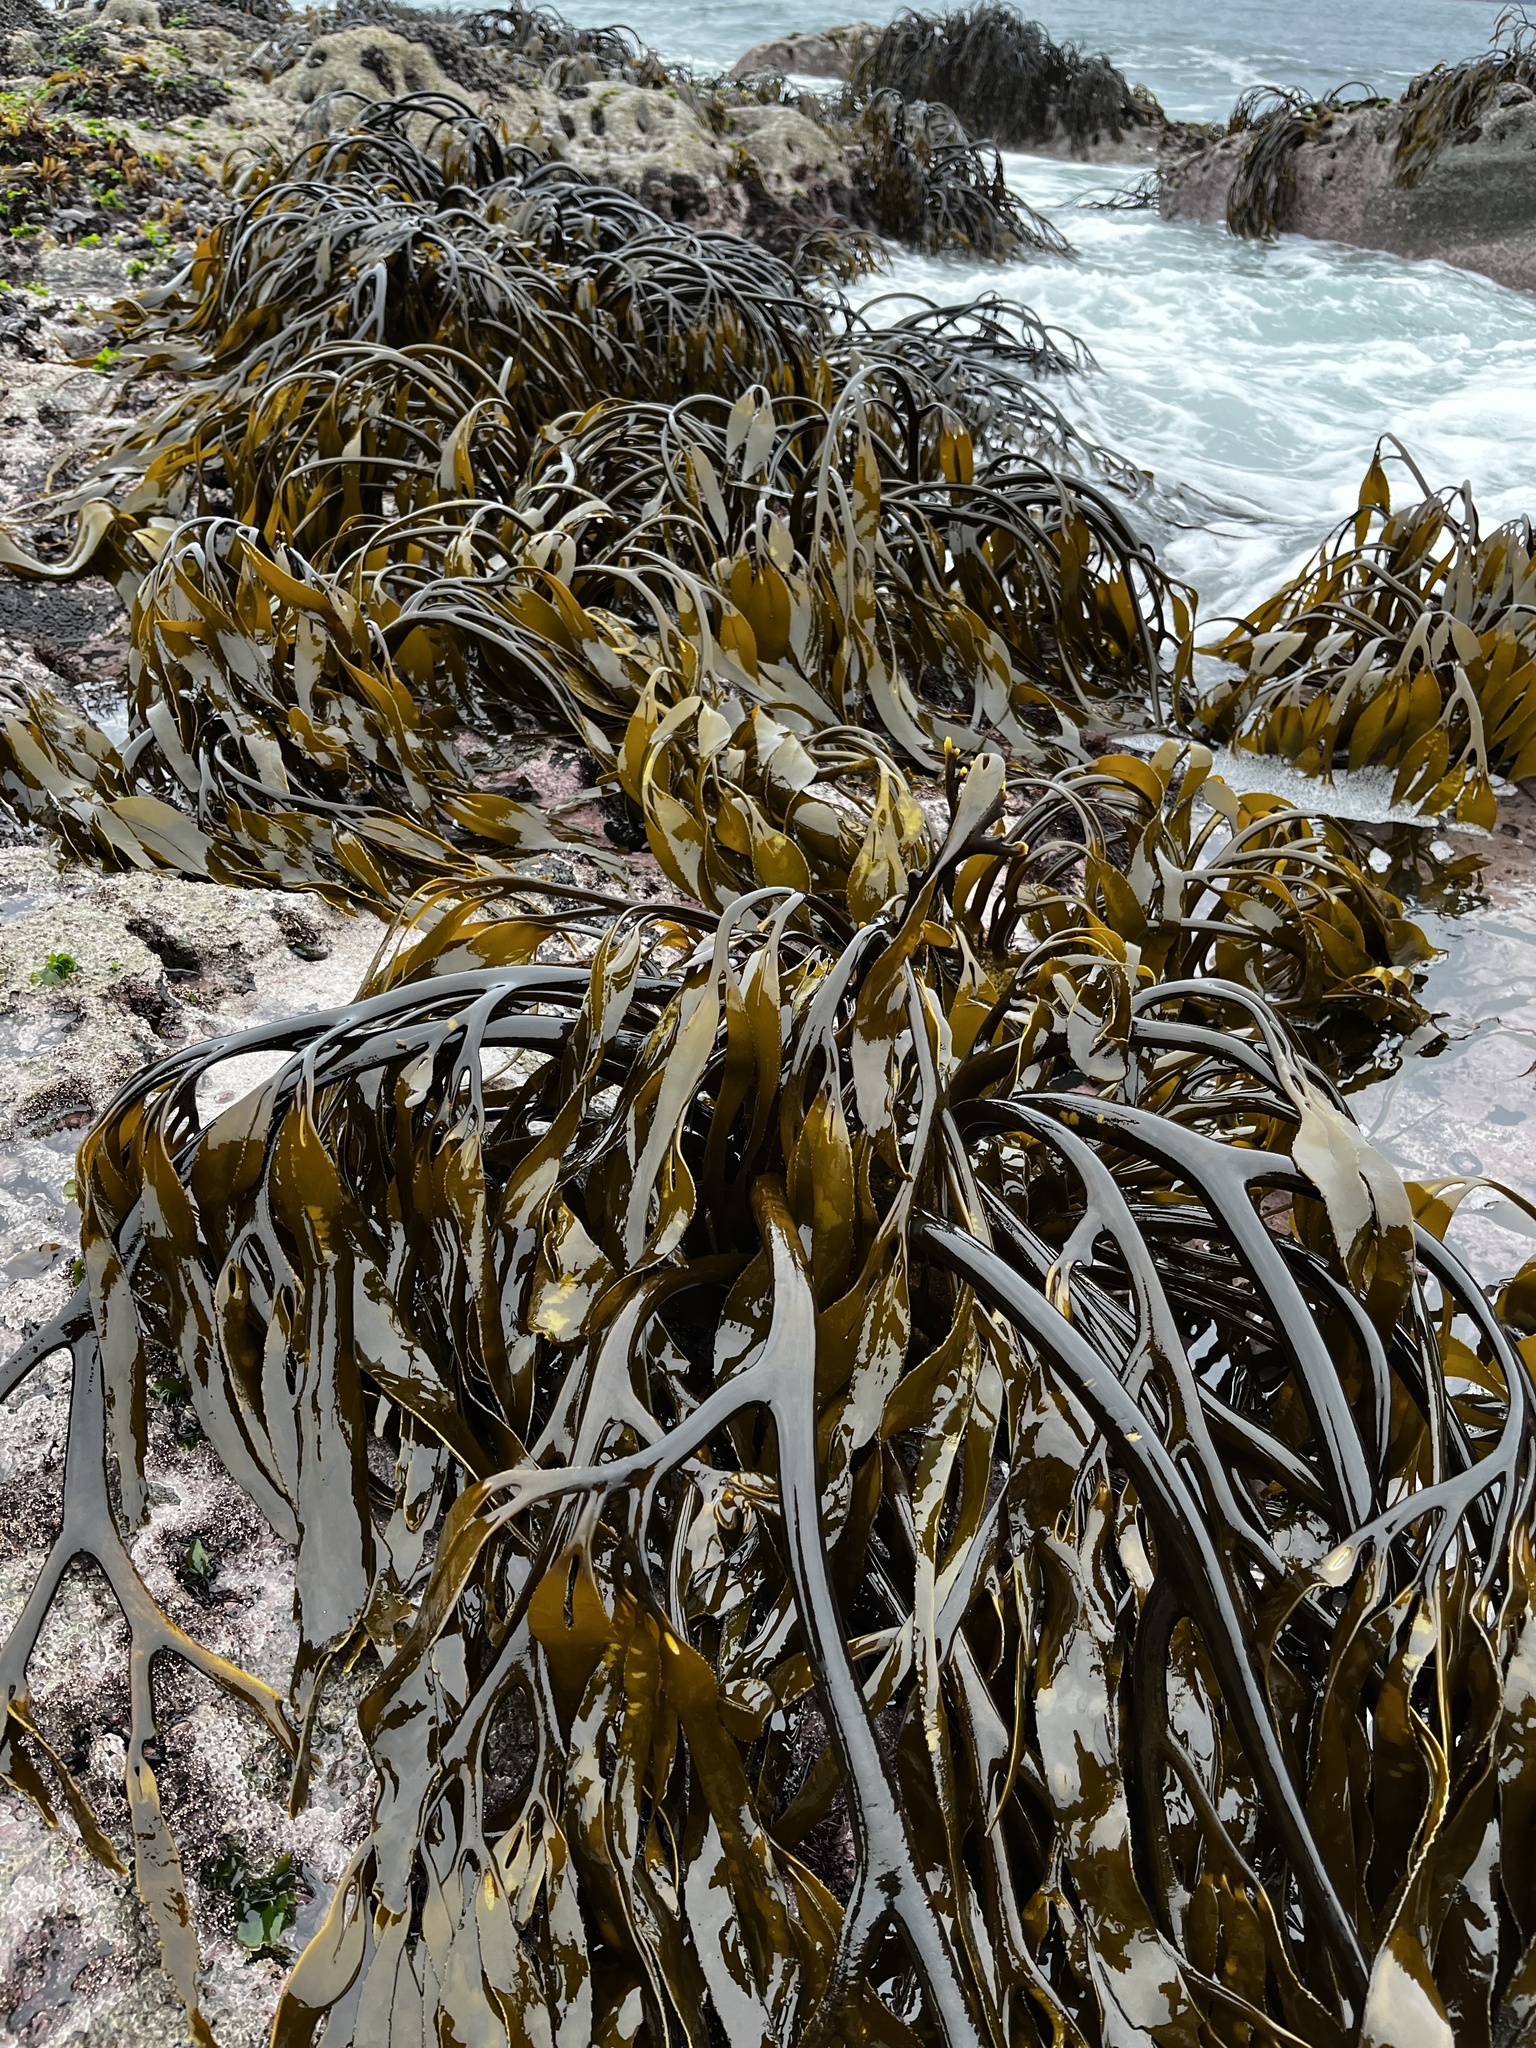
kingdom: Chromista
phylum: Ochrophyta
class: Phaeophyceae
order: Laminariales
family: Lessoniaceae
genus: Lessonia
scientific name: Lessonia spicata
